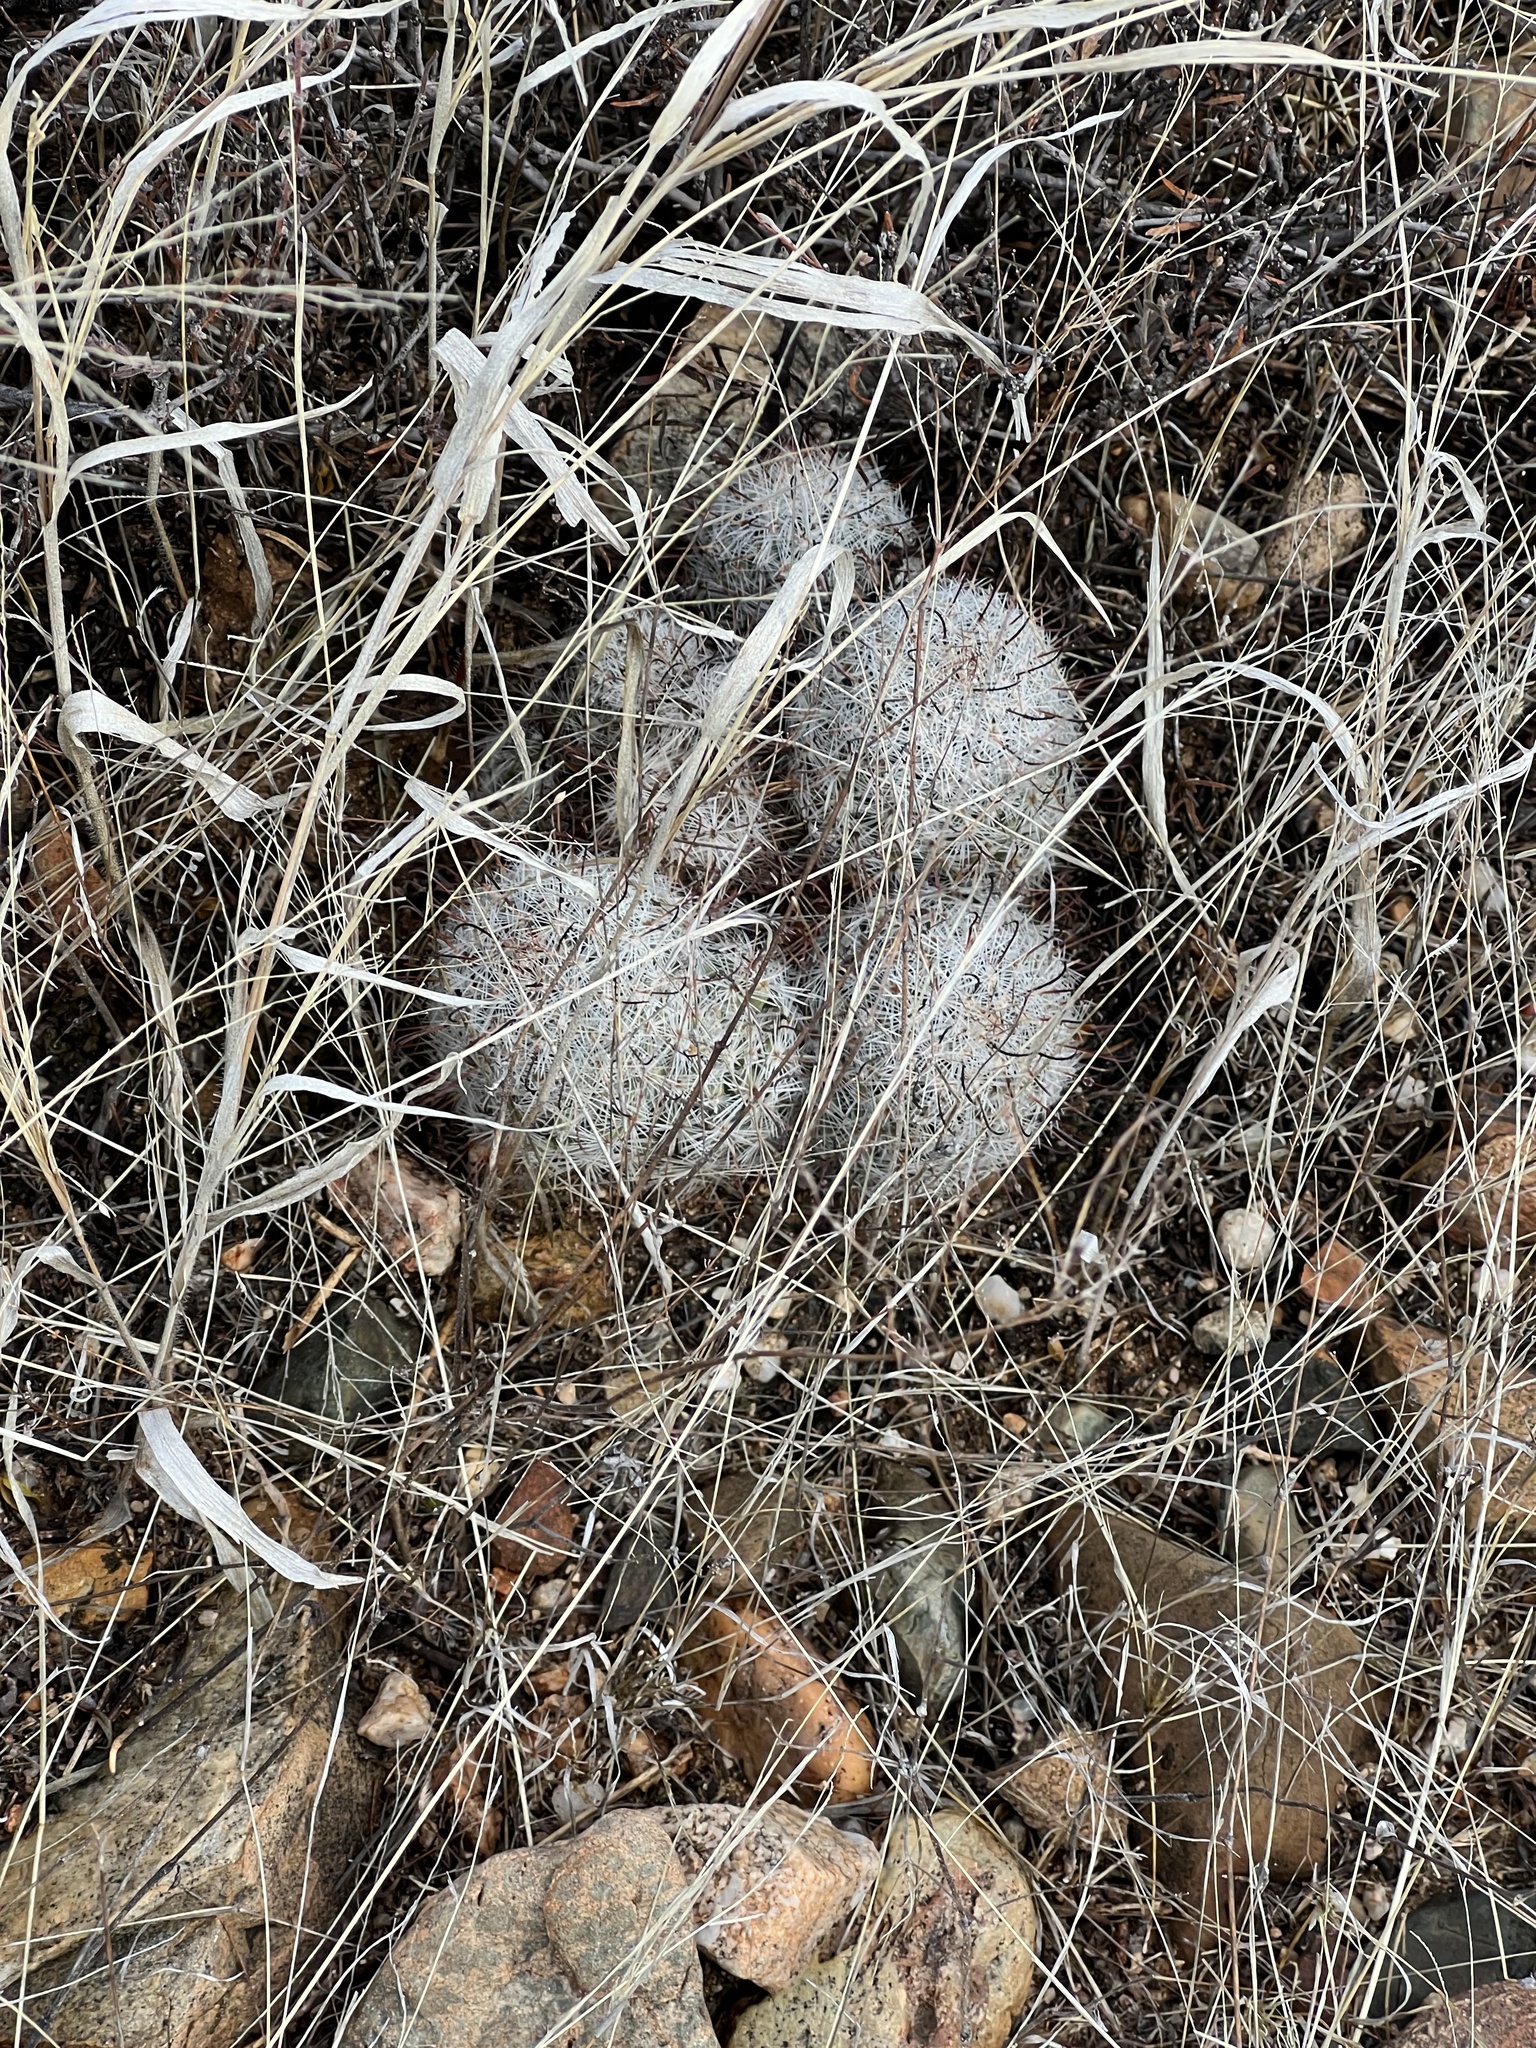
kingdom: Plantae
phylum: Tracheophyta
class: Magnoliopsida
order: Caryophyllales
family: Cactaceae
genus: Cochemiea
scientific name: Cochemiea grahamii
